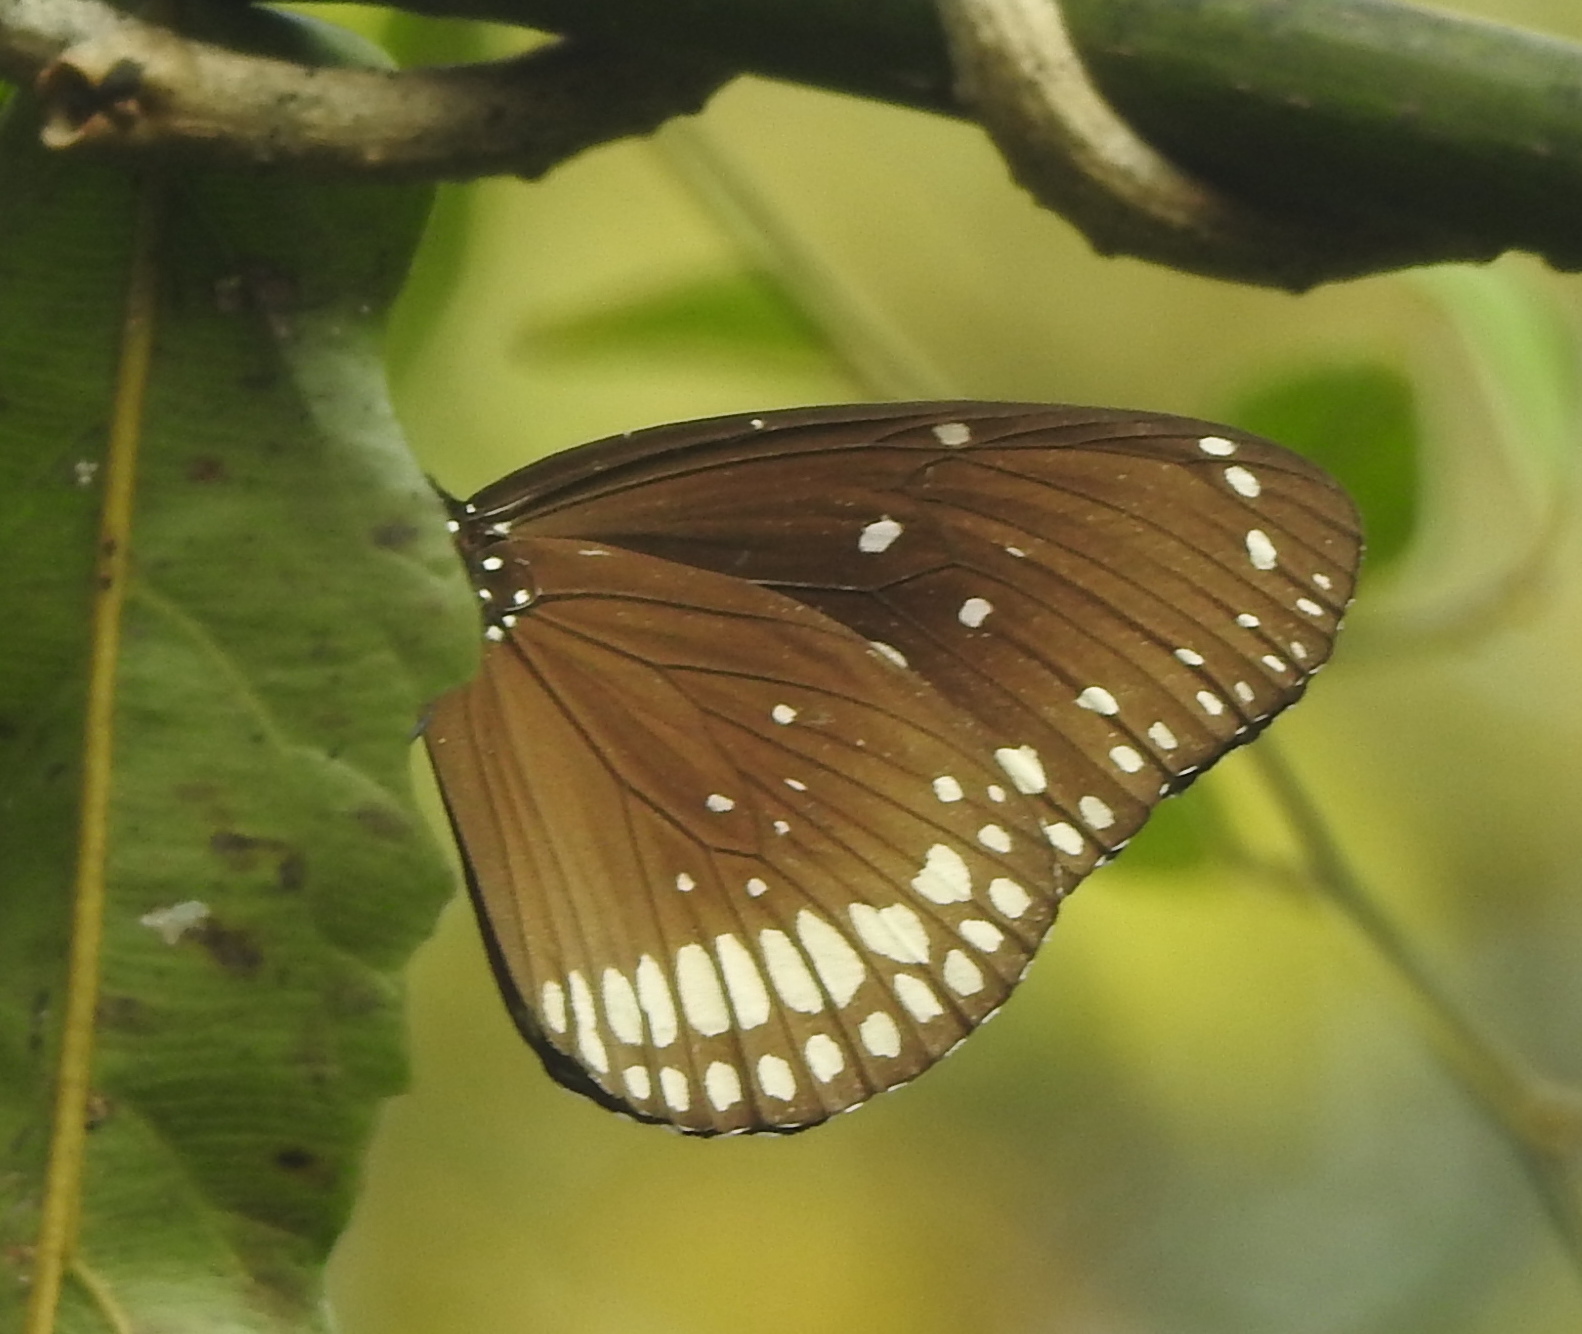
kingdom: Animalia
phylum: Arthropoda
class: Insecta
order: Lepidoptera
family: Nymphalidae
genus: Euploea
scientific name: Euploea core
